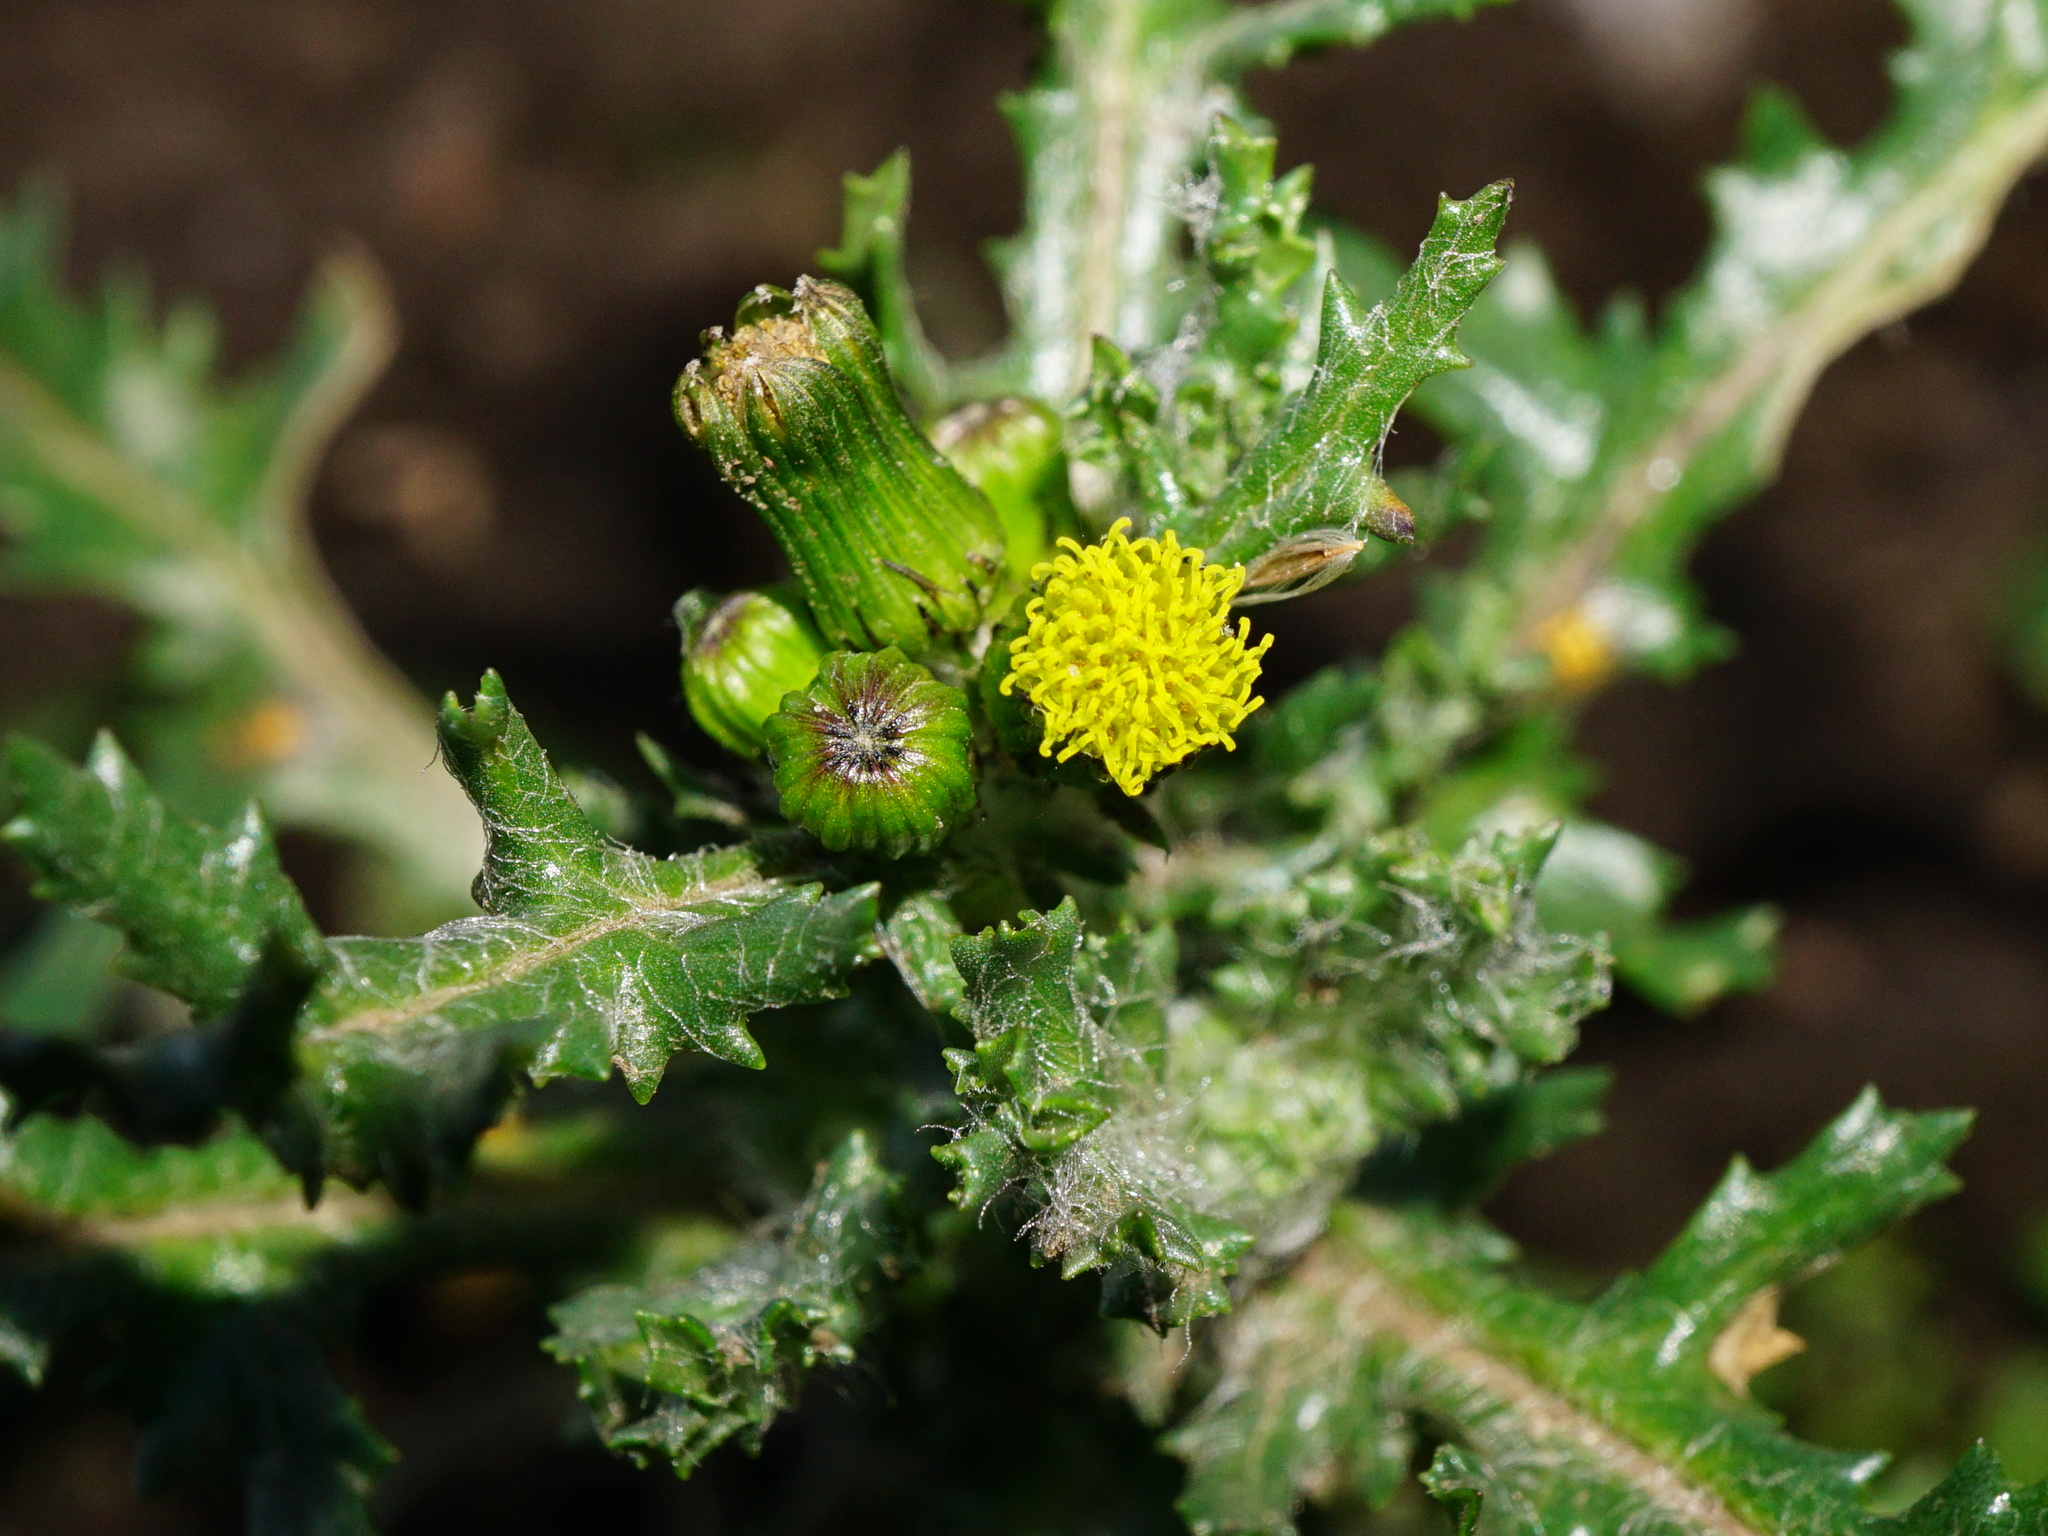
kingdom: Plantae
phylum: Tracheophyta
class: Magnoliopsida
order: Asterales
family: Asteraceae
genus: Senecio
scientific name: Senecio vulgaris
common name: Old-man-in-the-spring
